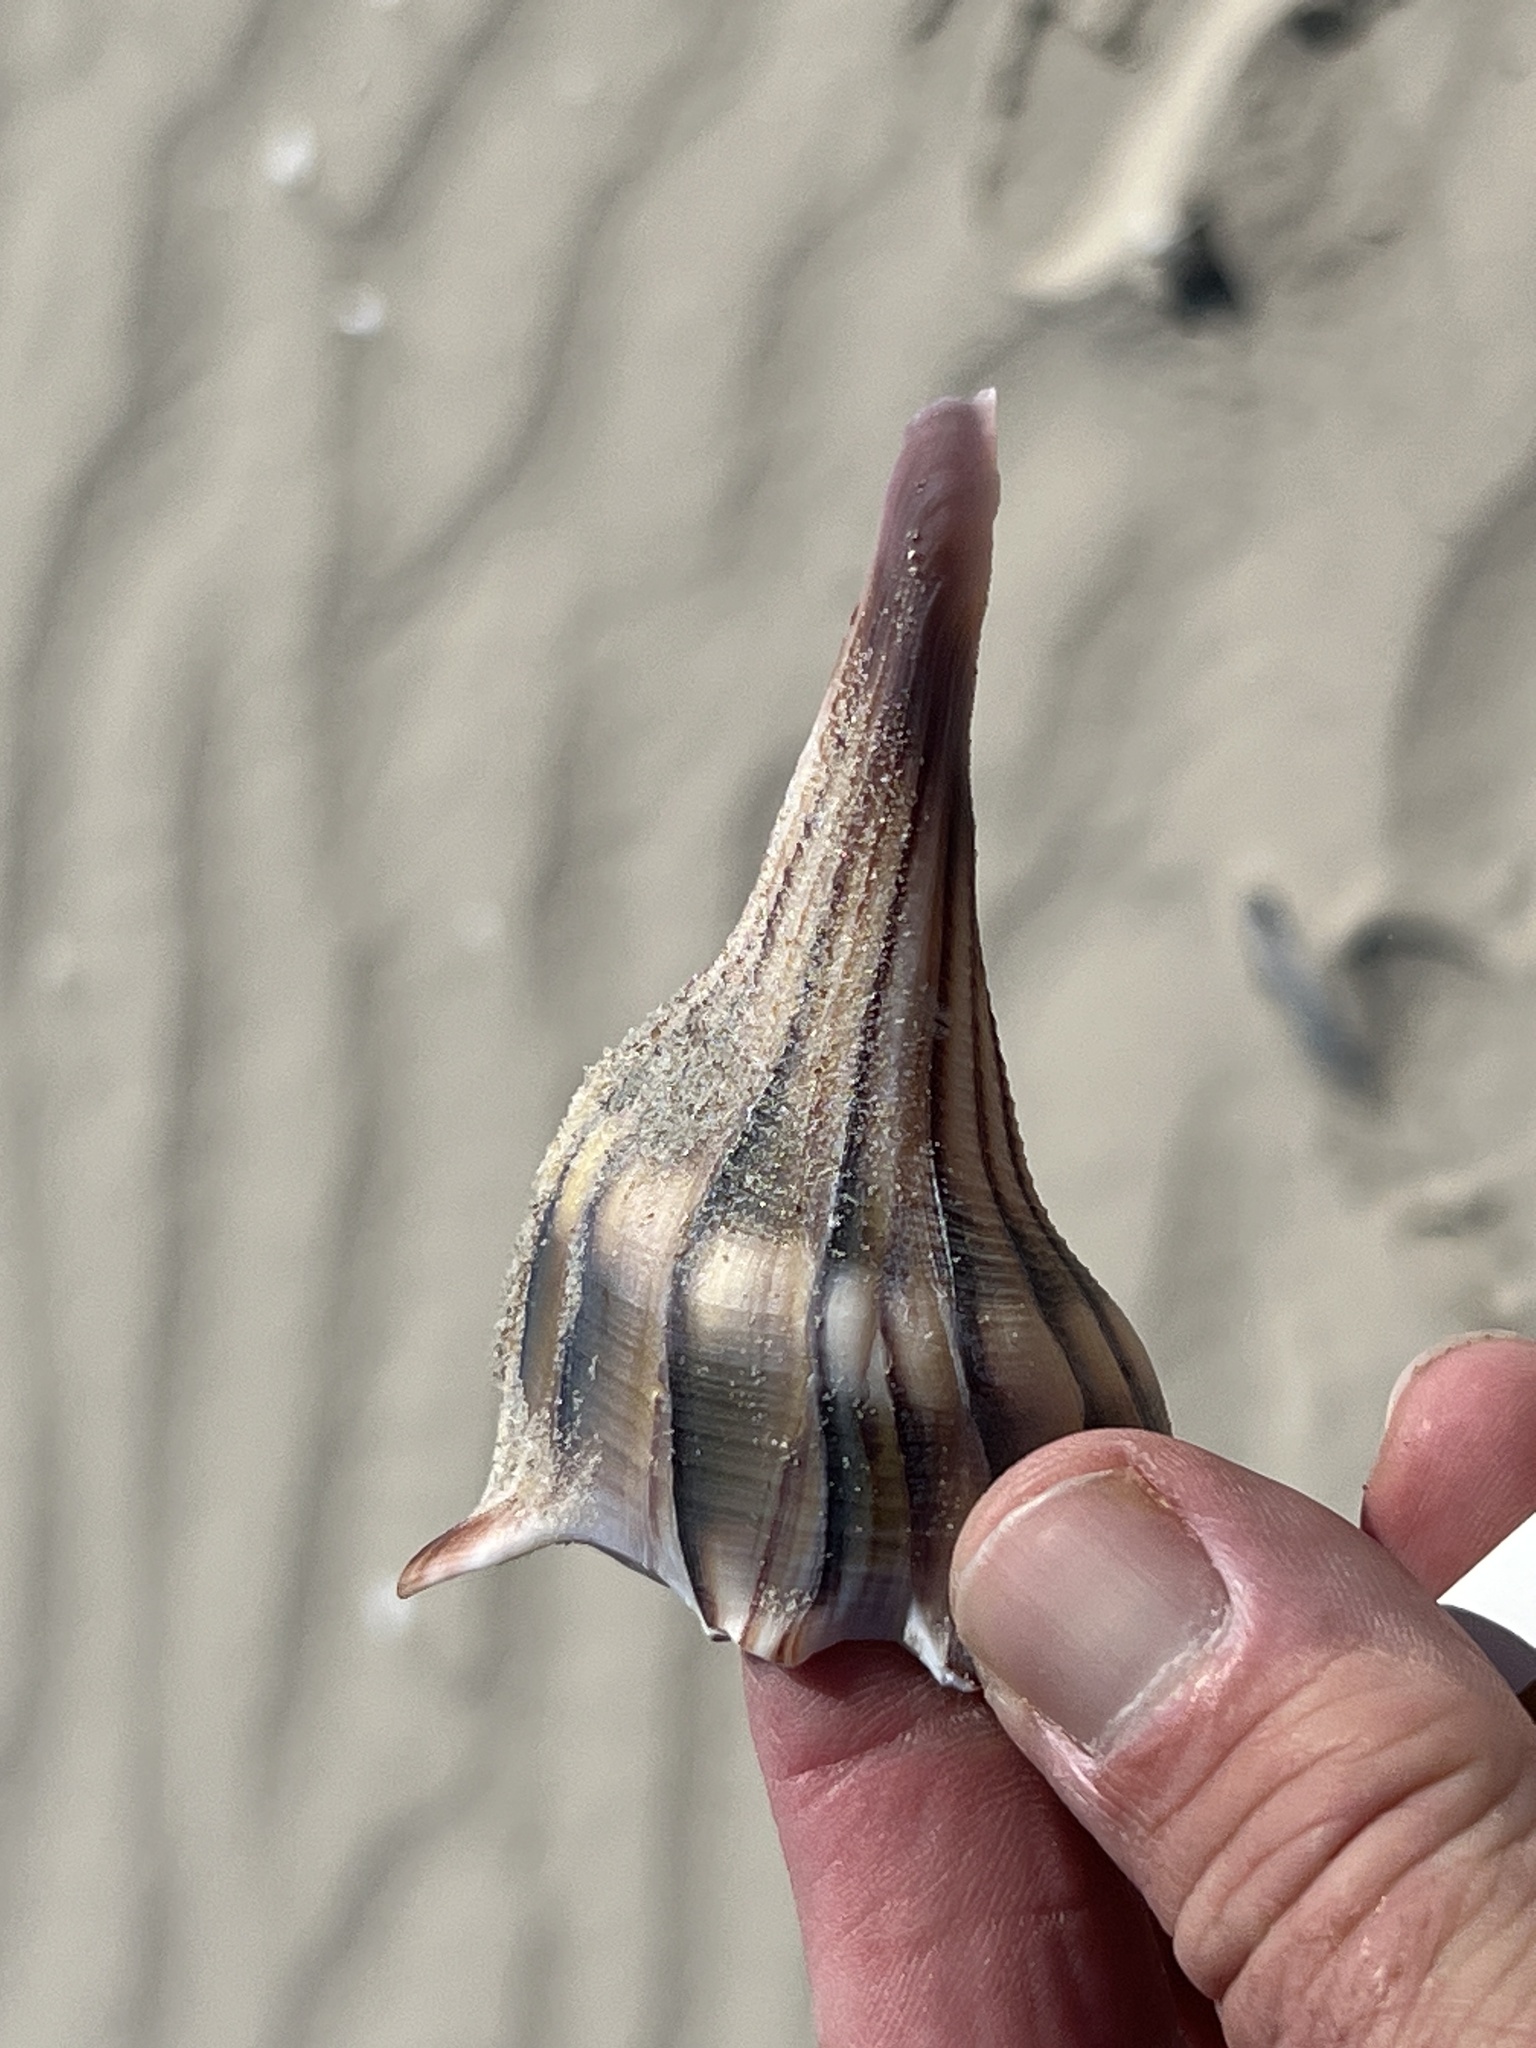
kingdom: Animalia
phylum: Mollusca
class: Gastropoda
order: Neogastropoda
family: Busyconidae
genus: Sinistrofulgur
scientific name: Sinistrofulgur pulleyi
